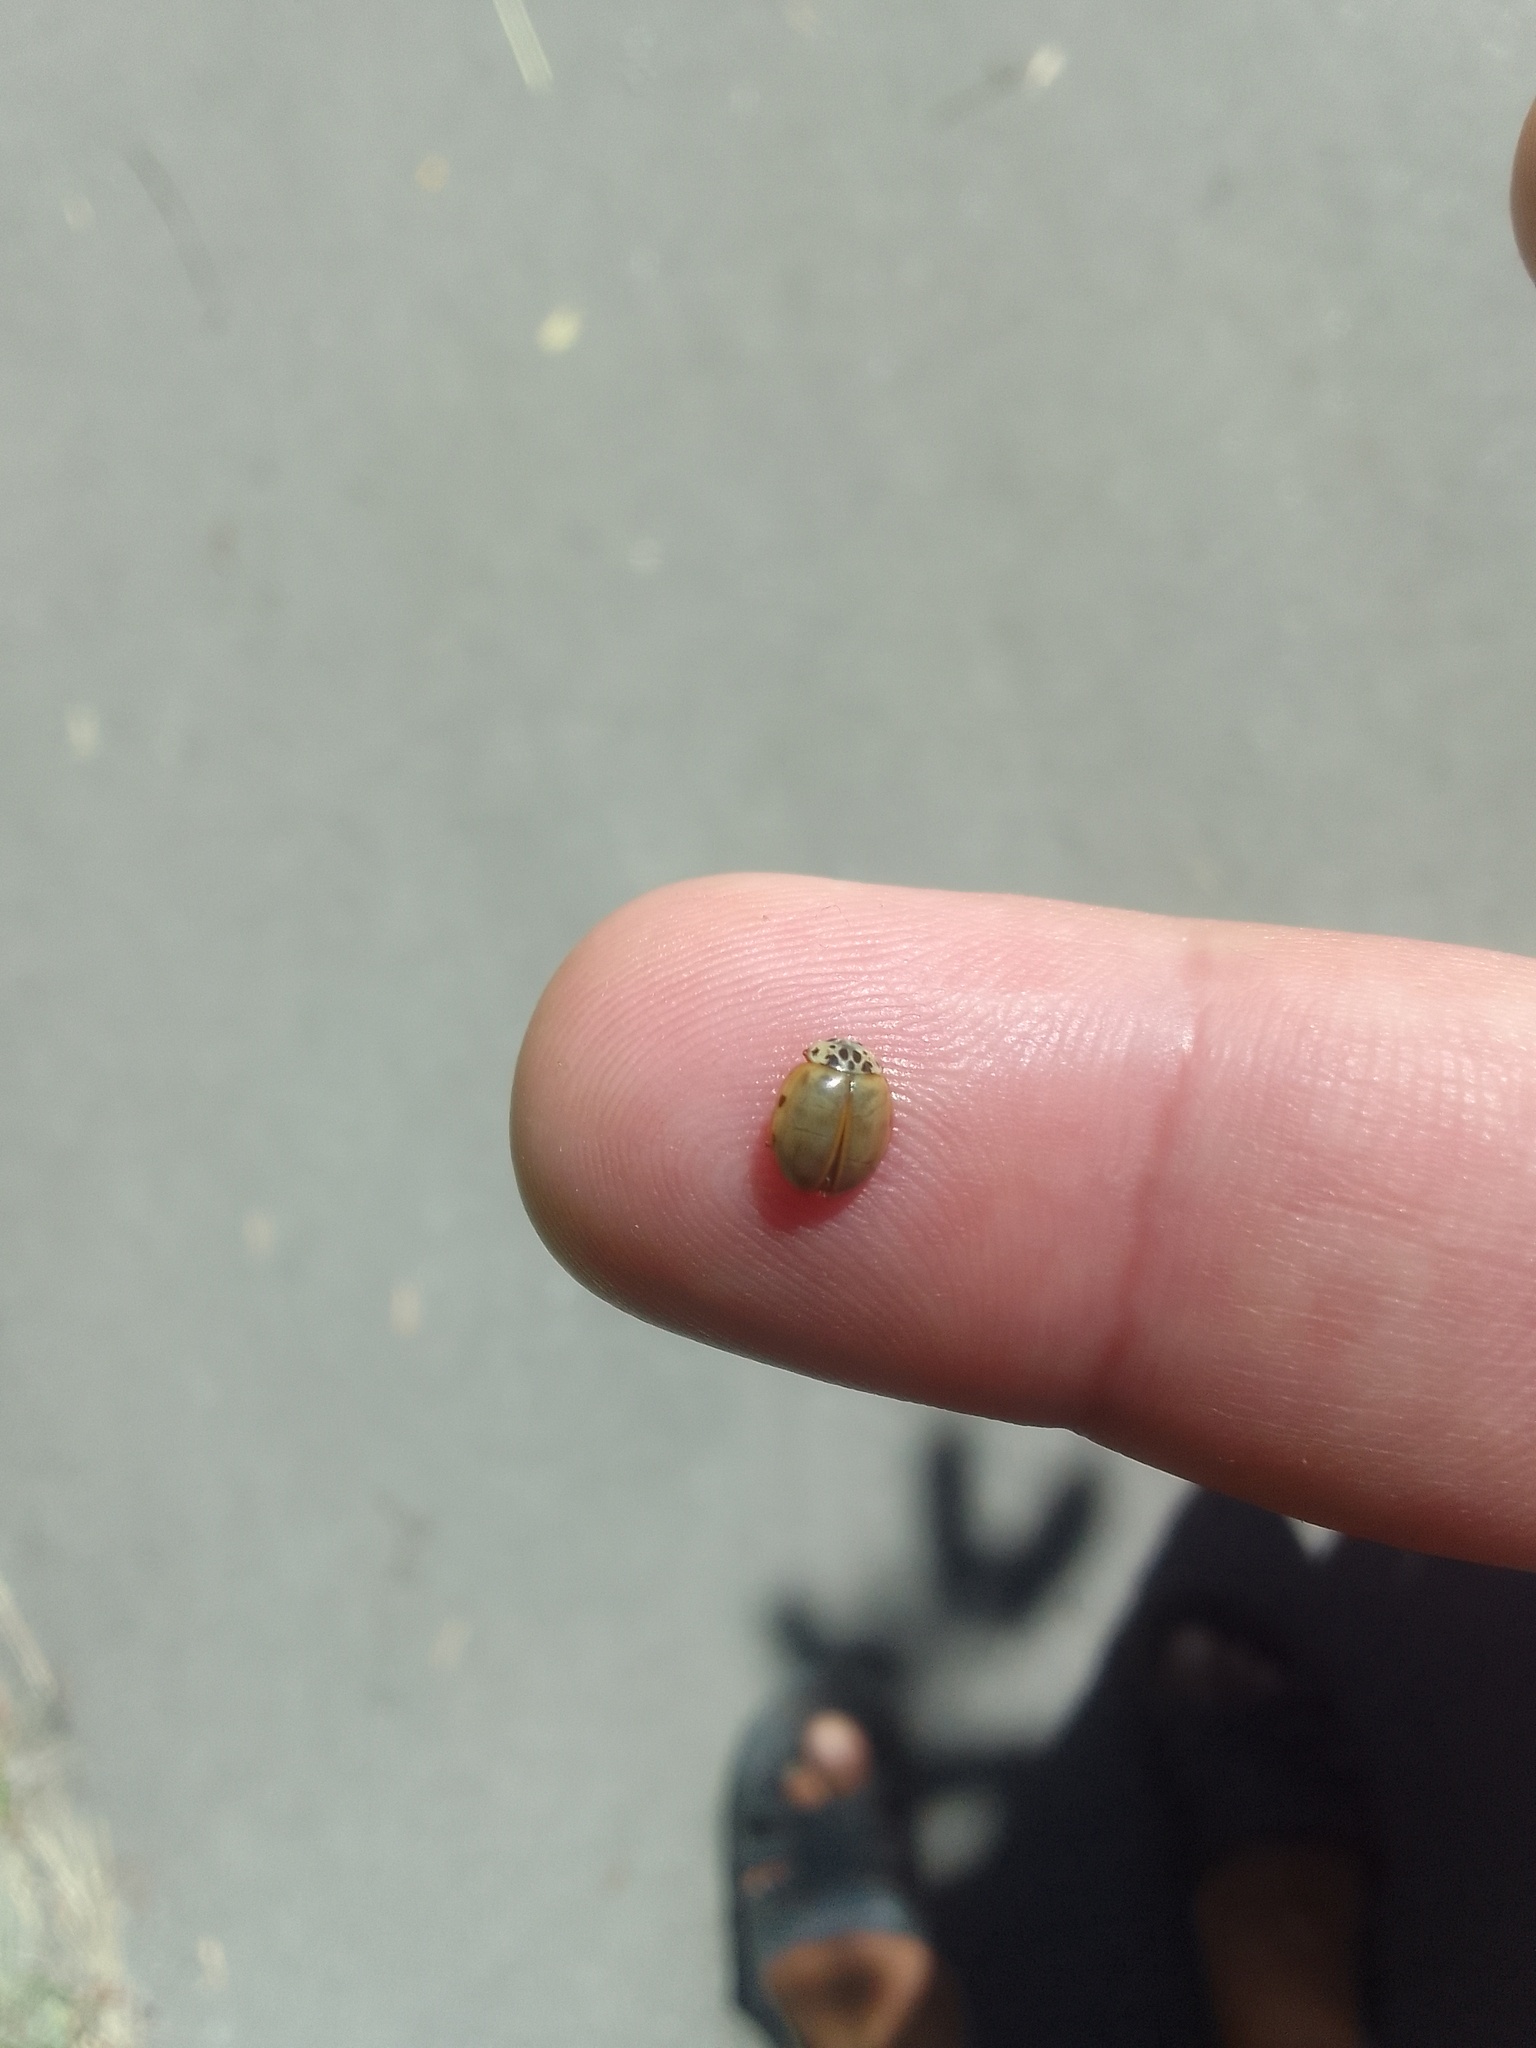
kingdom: Animalia
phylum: Arthropoda
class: Insecta
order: Coleoptera
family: Coccinellidae
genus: Harmonia
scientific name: Harmonia quadripunctata
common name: Cream-streaked ladybird
